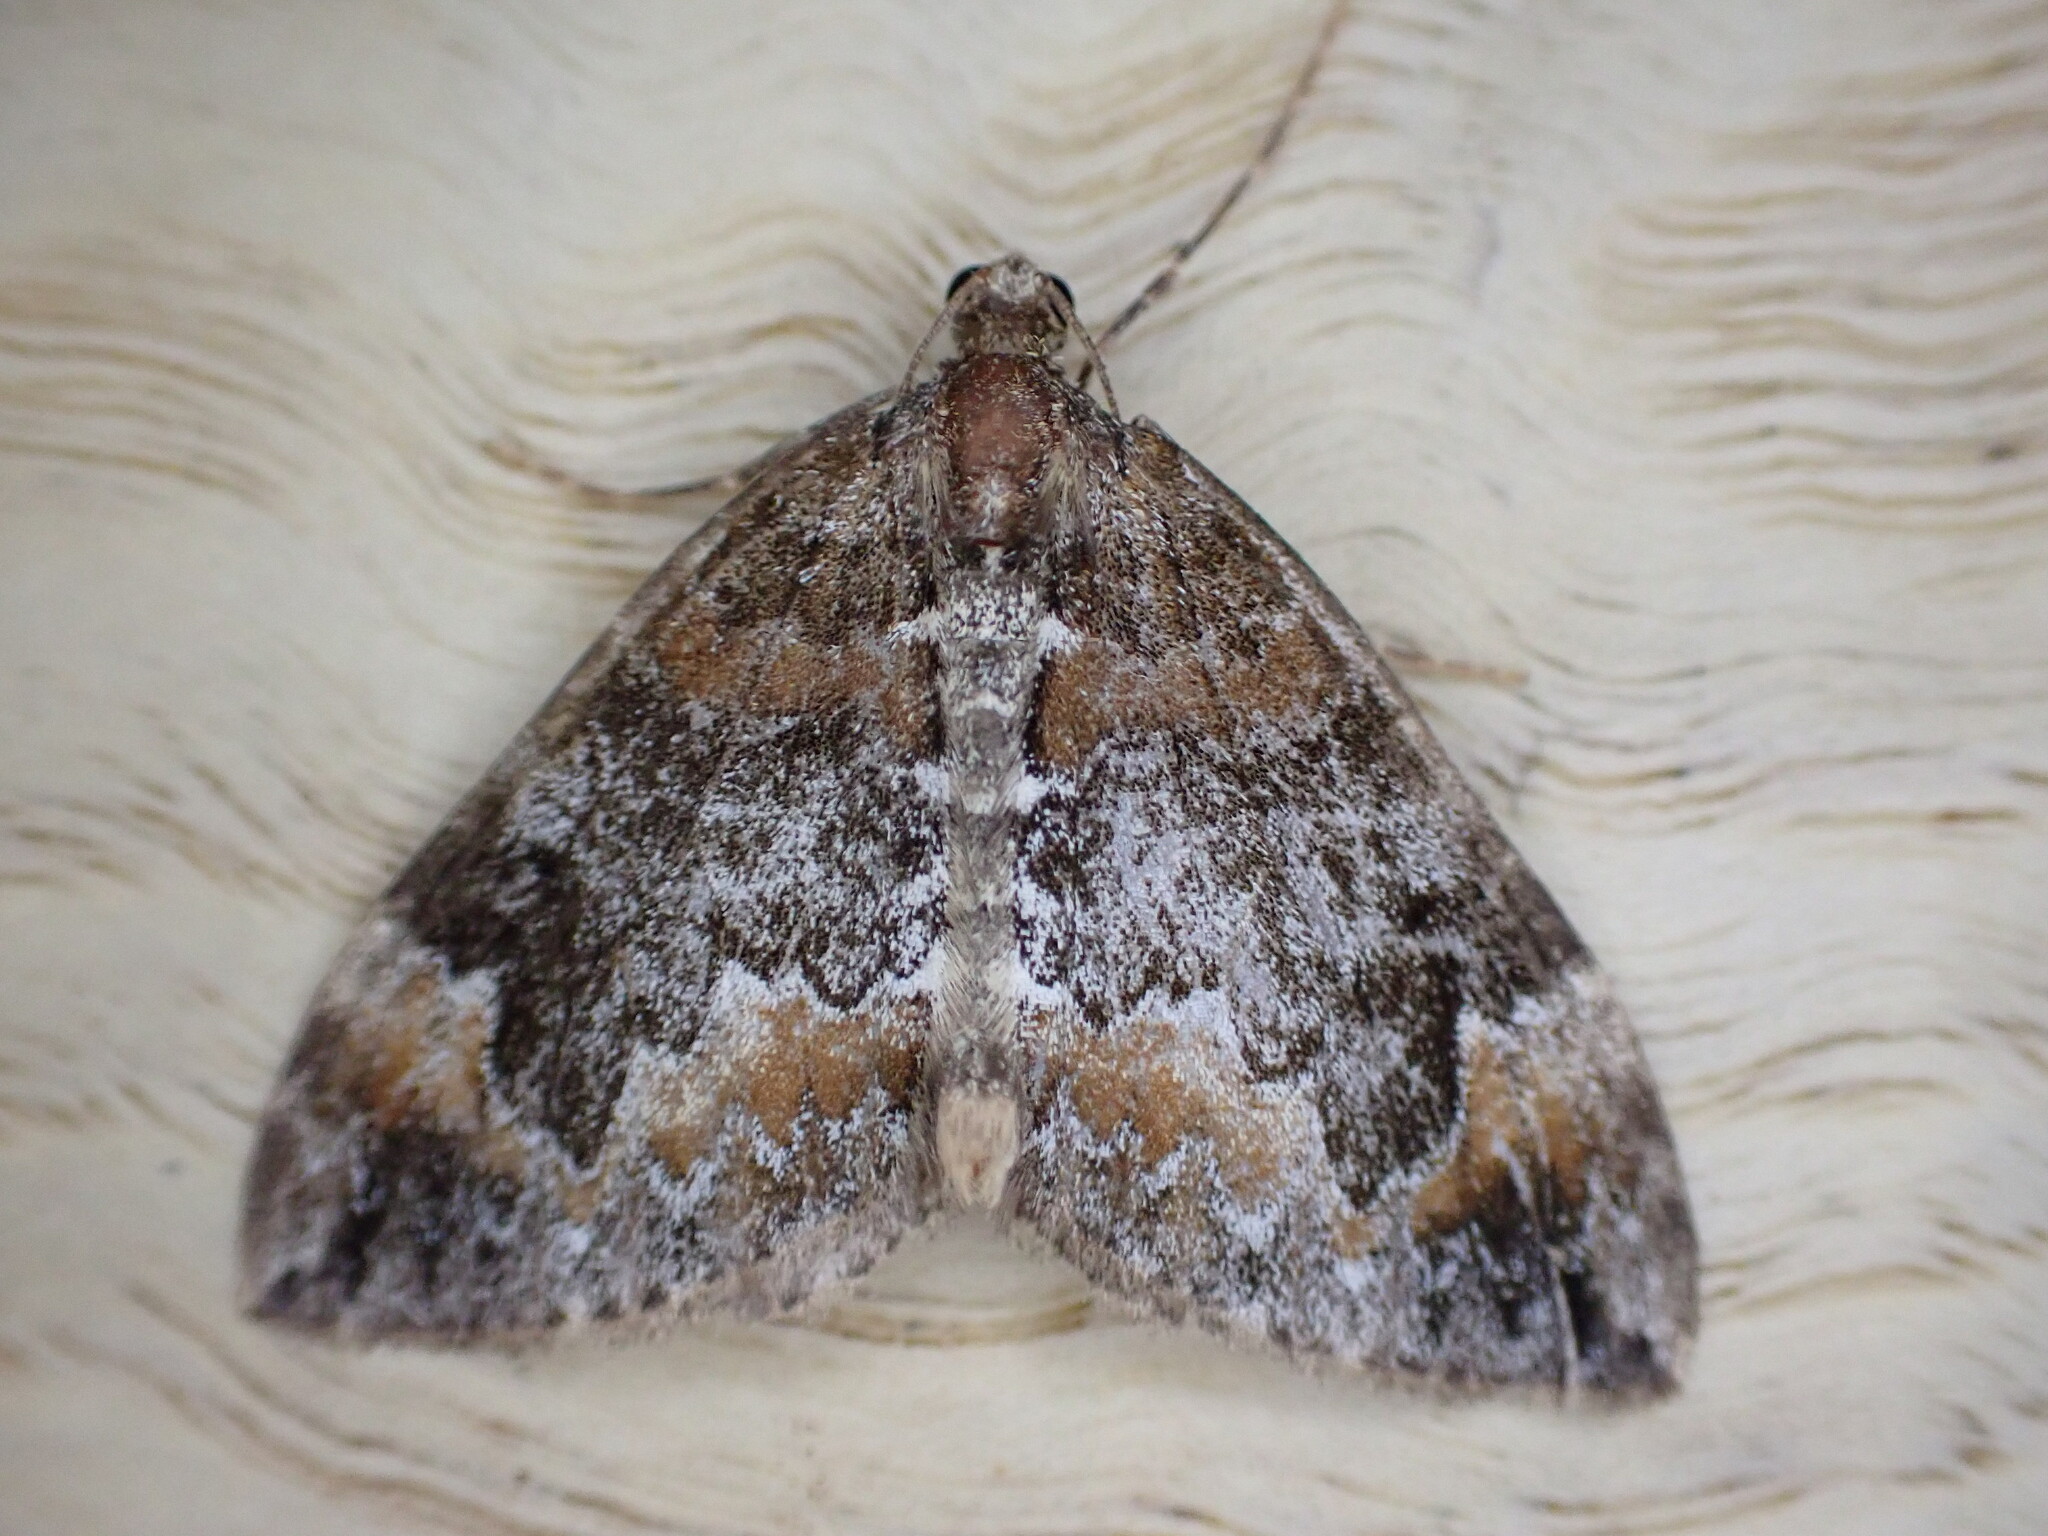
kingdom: Animalia
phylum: Arthropoda
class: Insecta
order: Lepidoptera
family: Geometridae
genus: Dysstroma
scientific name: Dysstroma truncata
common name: Common marbled carpet
